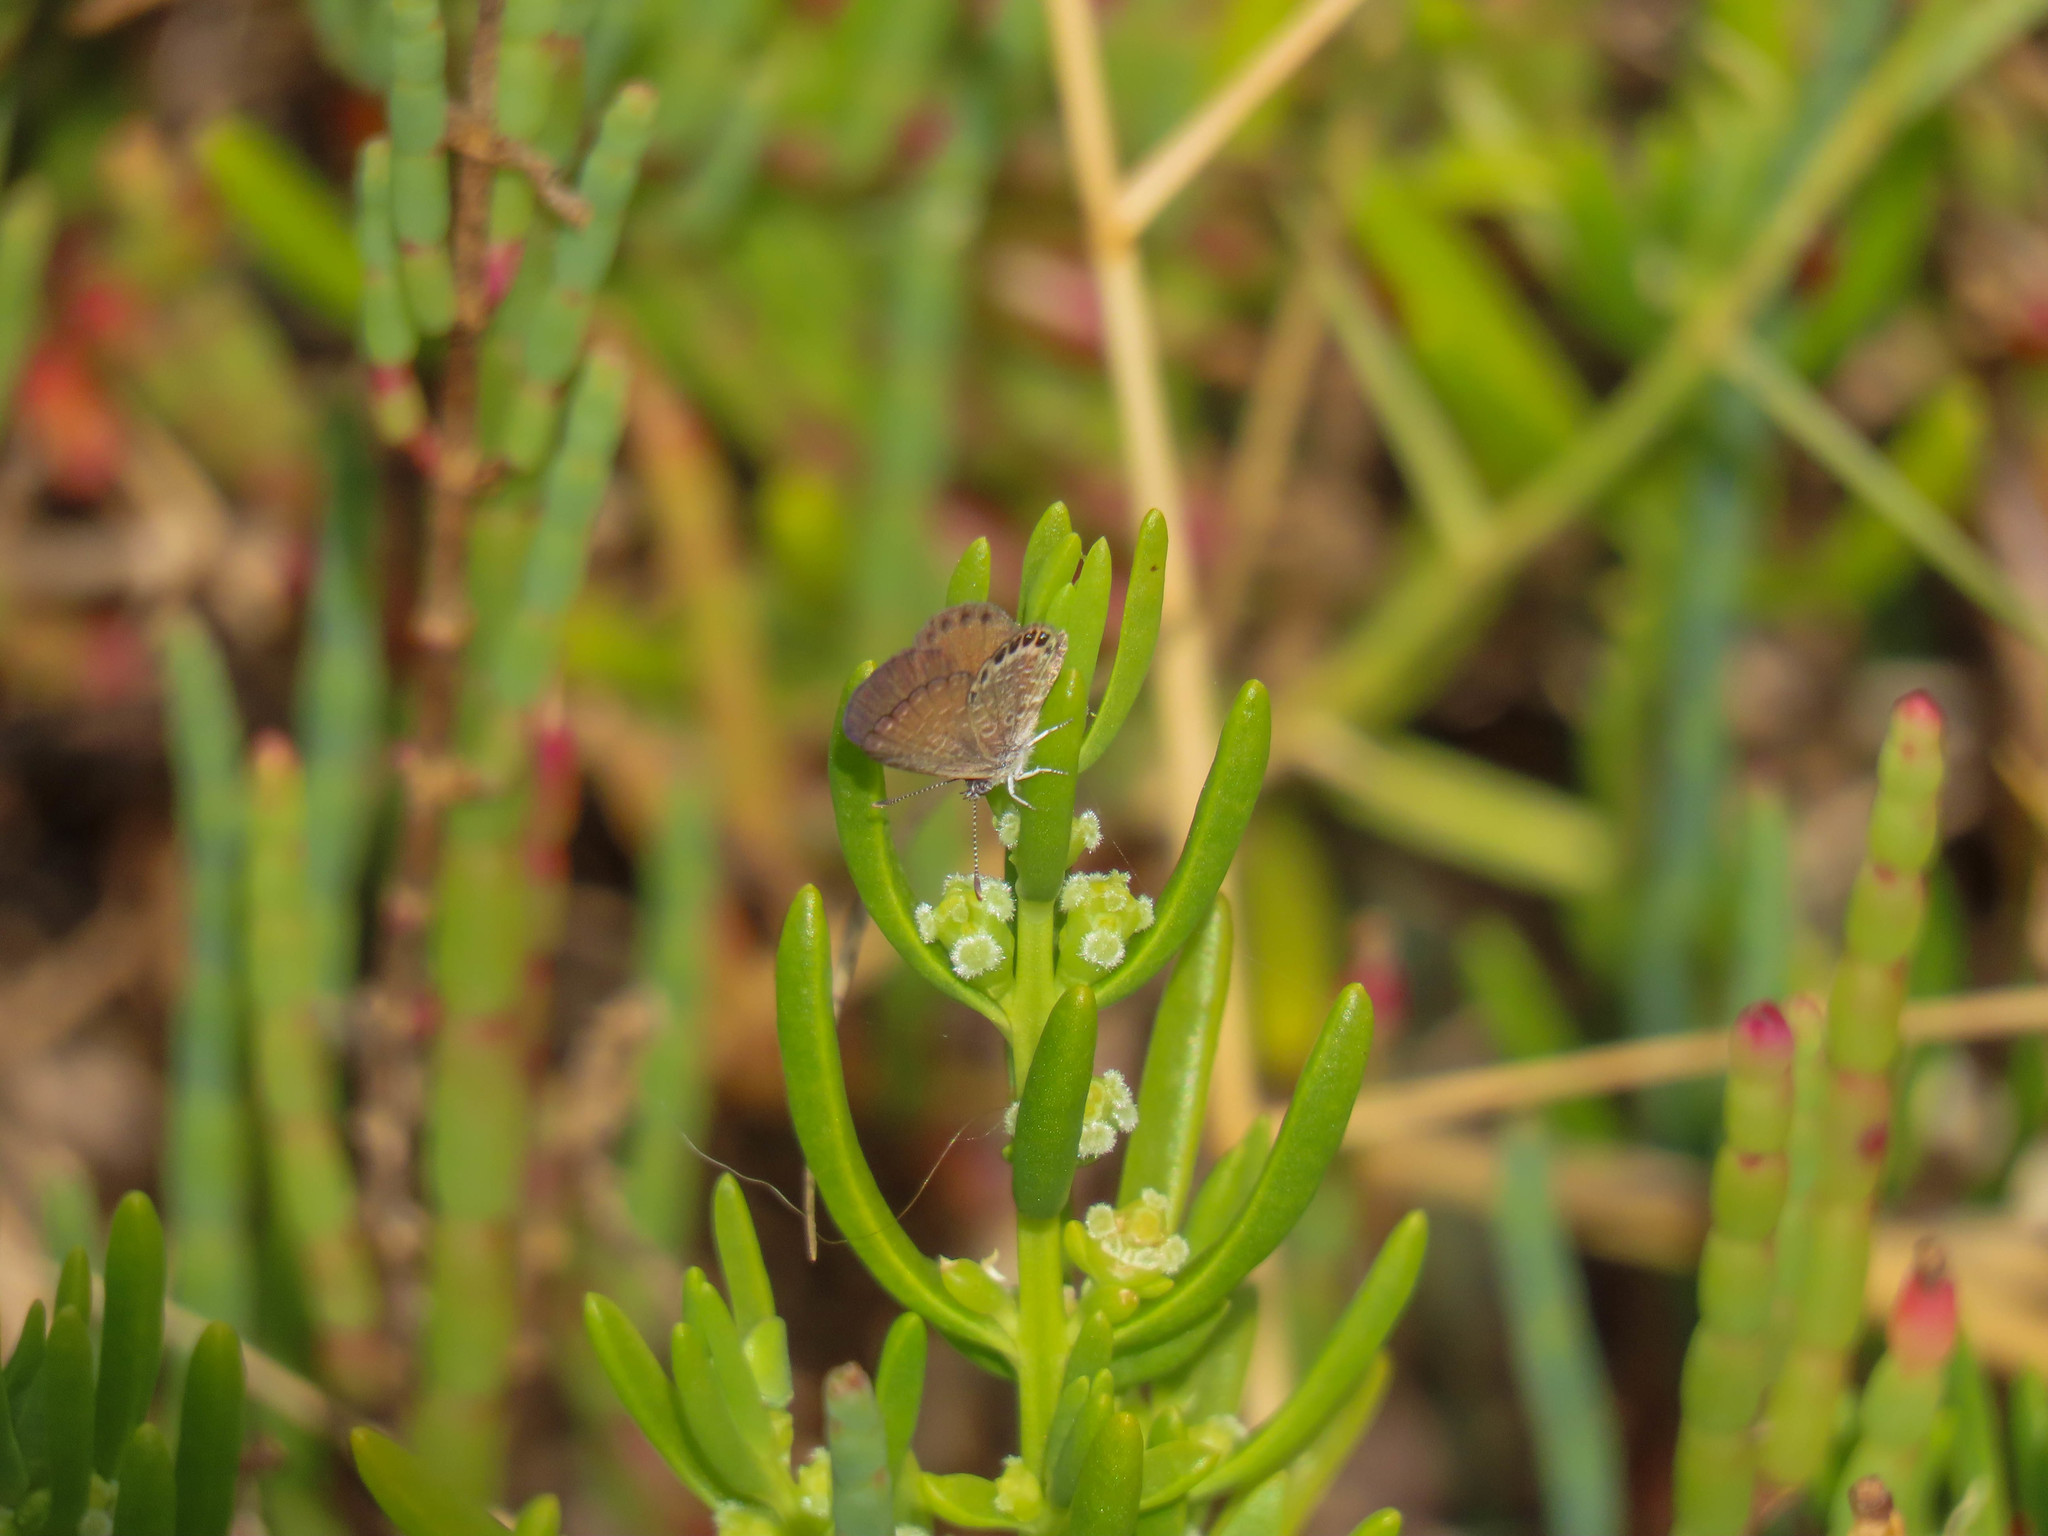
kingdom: Animalia
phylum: Arthropoda
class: Insecta
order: Lepidoptera
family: Lycaenidae
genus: Brephidium
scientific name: Brephidium isophthalma
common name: Eastern pygmy-blue
